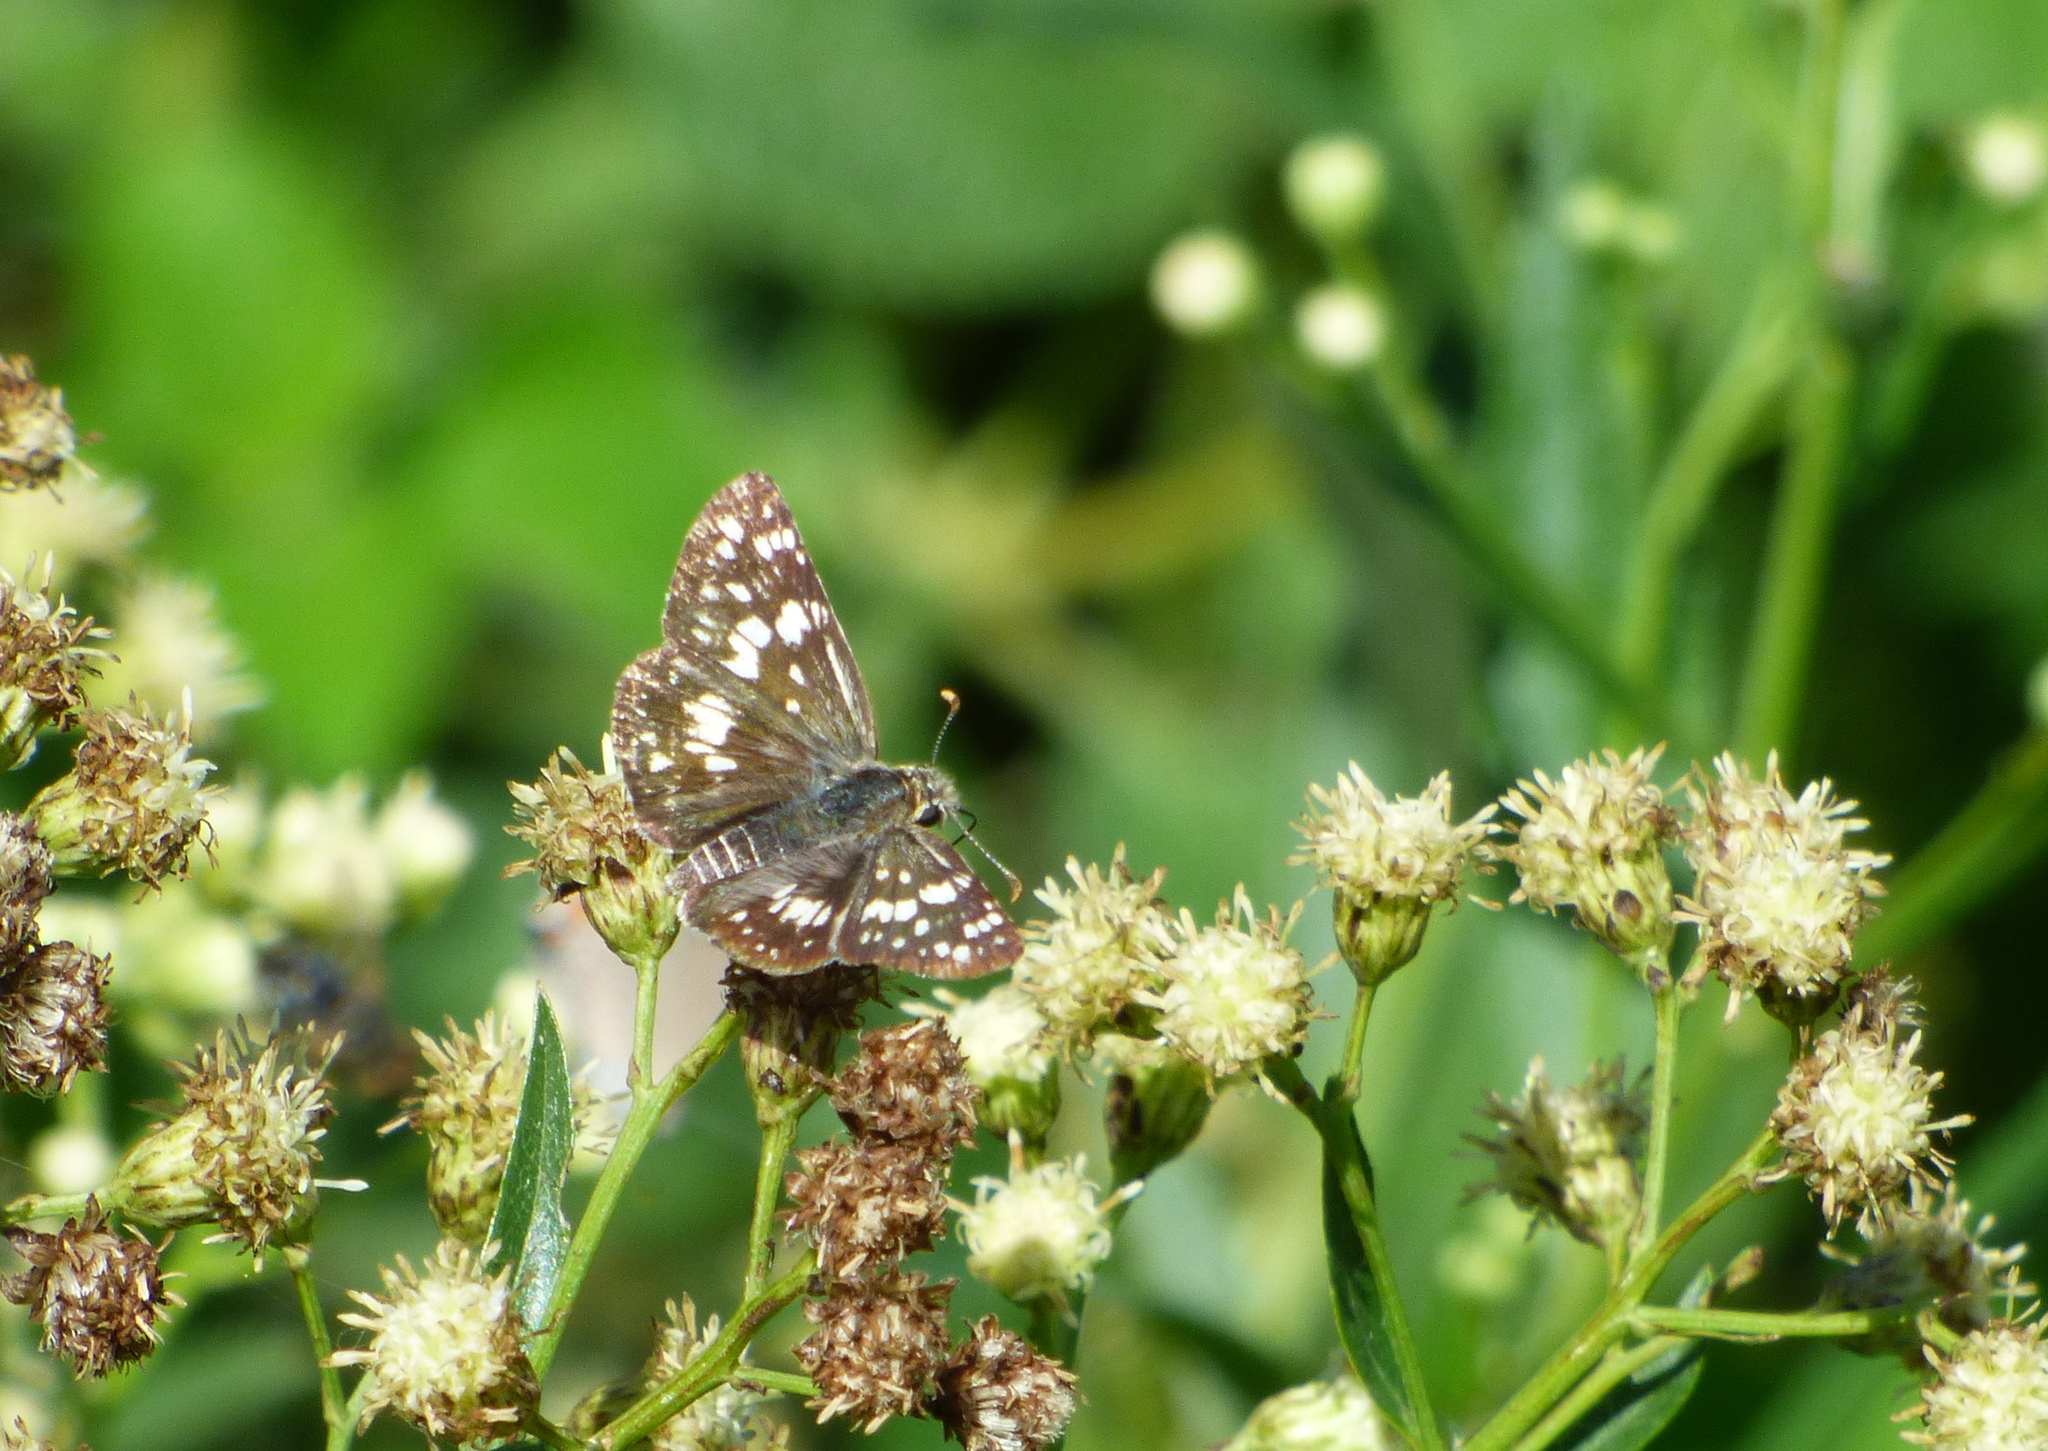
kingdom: Animalia
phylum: Arthropoda
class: Insecta
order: Lepidoptera
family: Hesperiidae
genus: Burnsius
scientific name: Burnsius orcynoides
